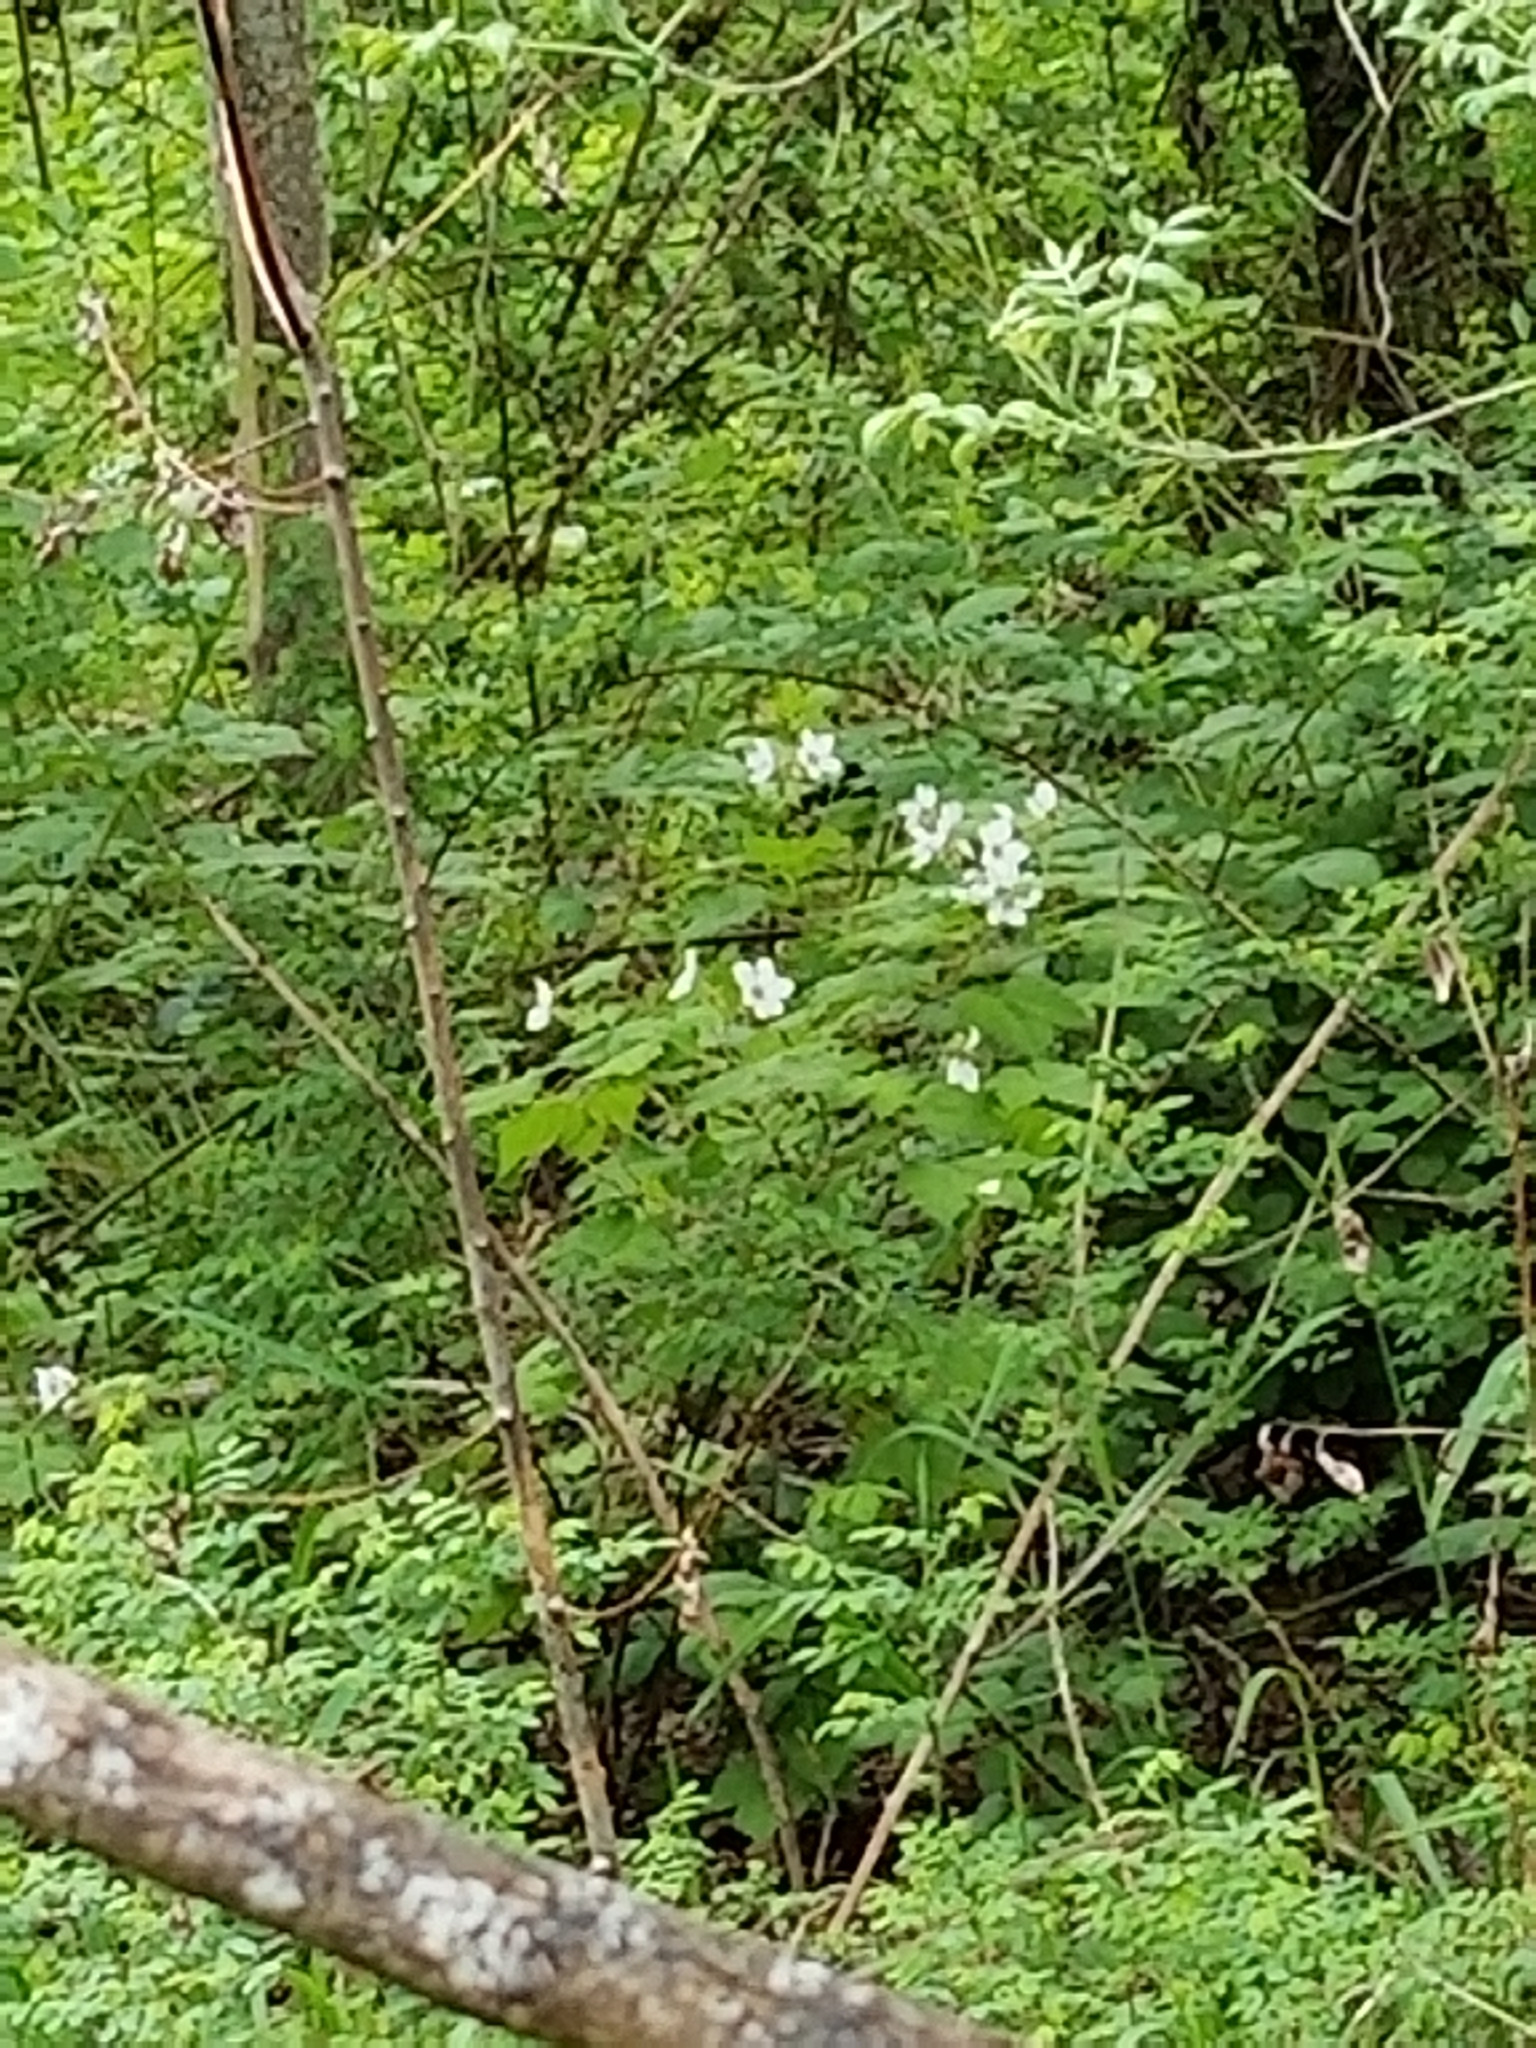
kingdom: Plantae
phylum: Tracheophyta
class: Magnoliopsida
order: Rosales
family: Rosaceae
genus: Rubus
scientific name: Rubus parviflorus
